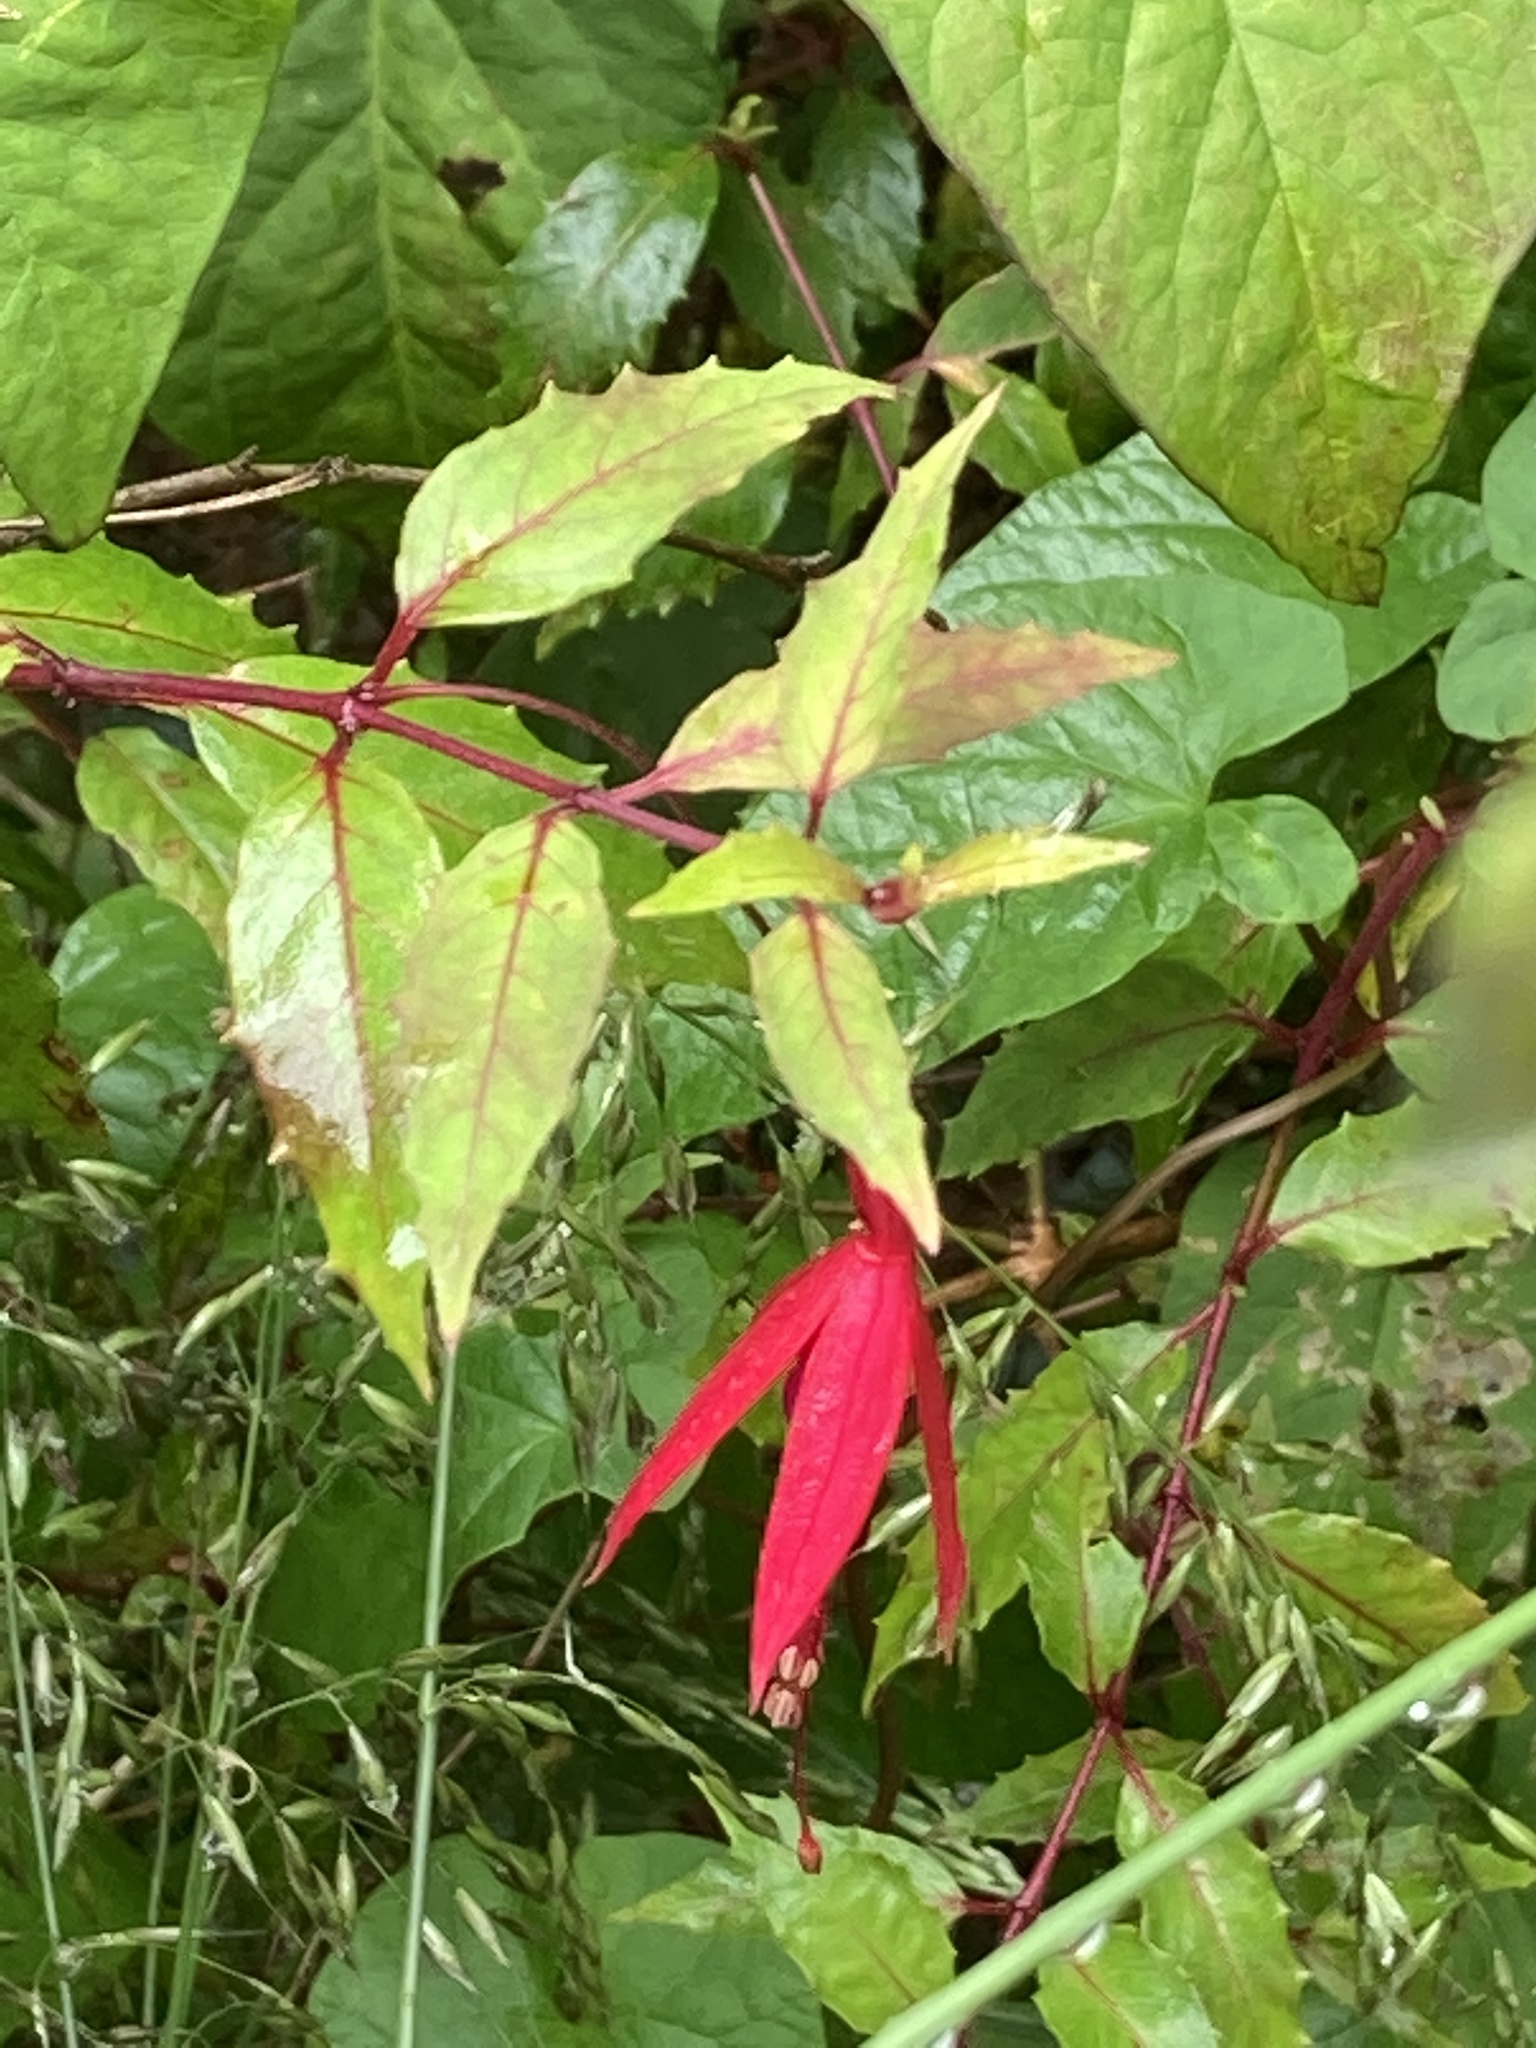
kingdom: Plantae
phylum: Tracheophyta
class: Magnoliopsida
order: Myrtales
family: Onagraceae
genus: Fuchsia
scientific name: Fuchsia magellanica
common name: Hardy fuchsia
